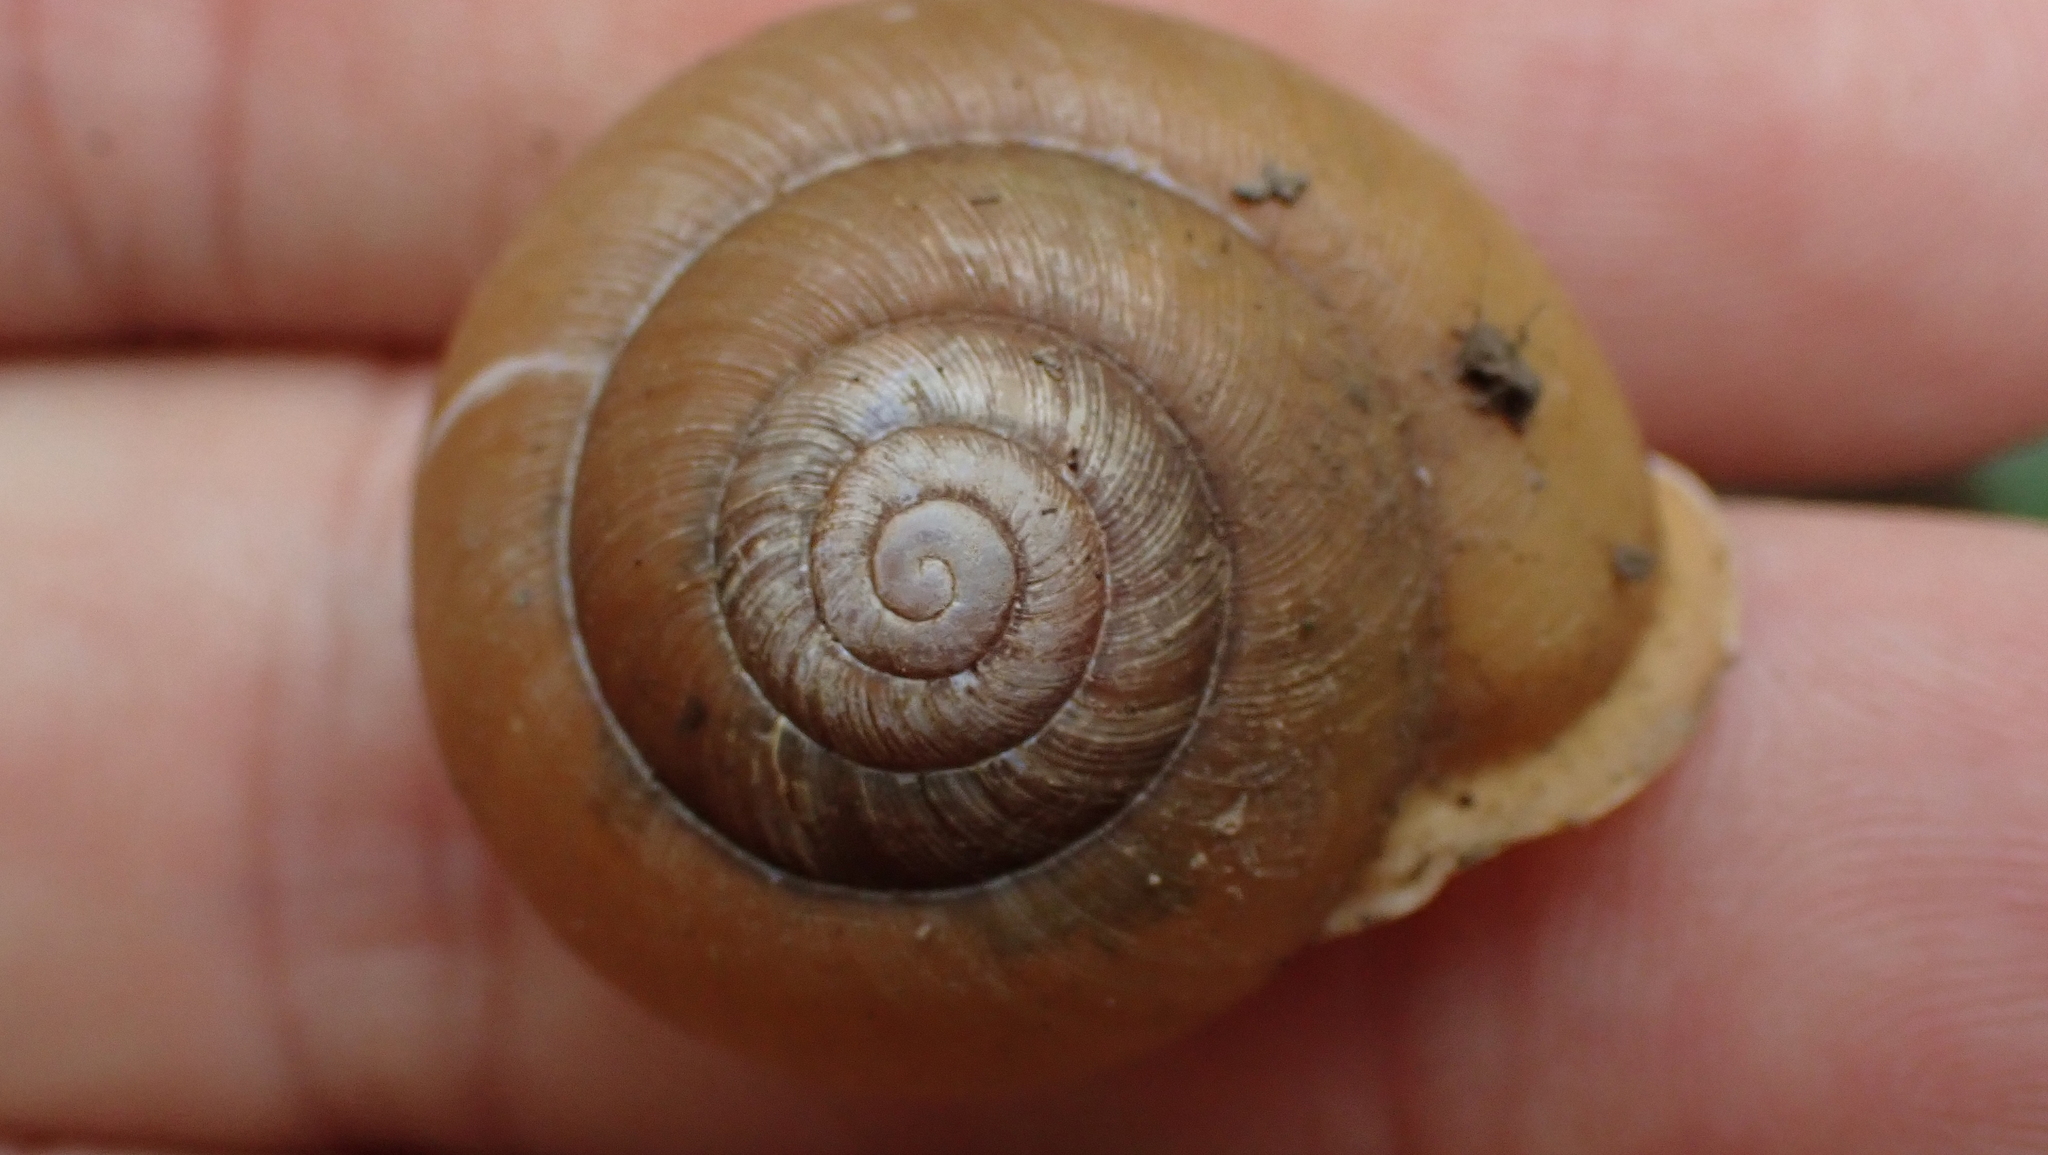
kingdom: Animalia
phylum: Mollusca
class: Gastropoda
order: Stylommatophora
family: Polygyridae
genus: Mesodon
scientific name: Mesodon zaletus
